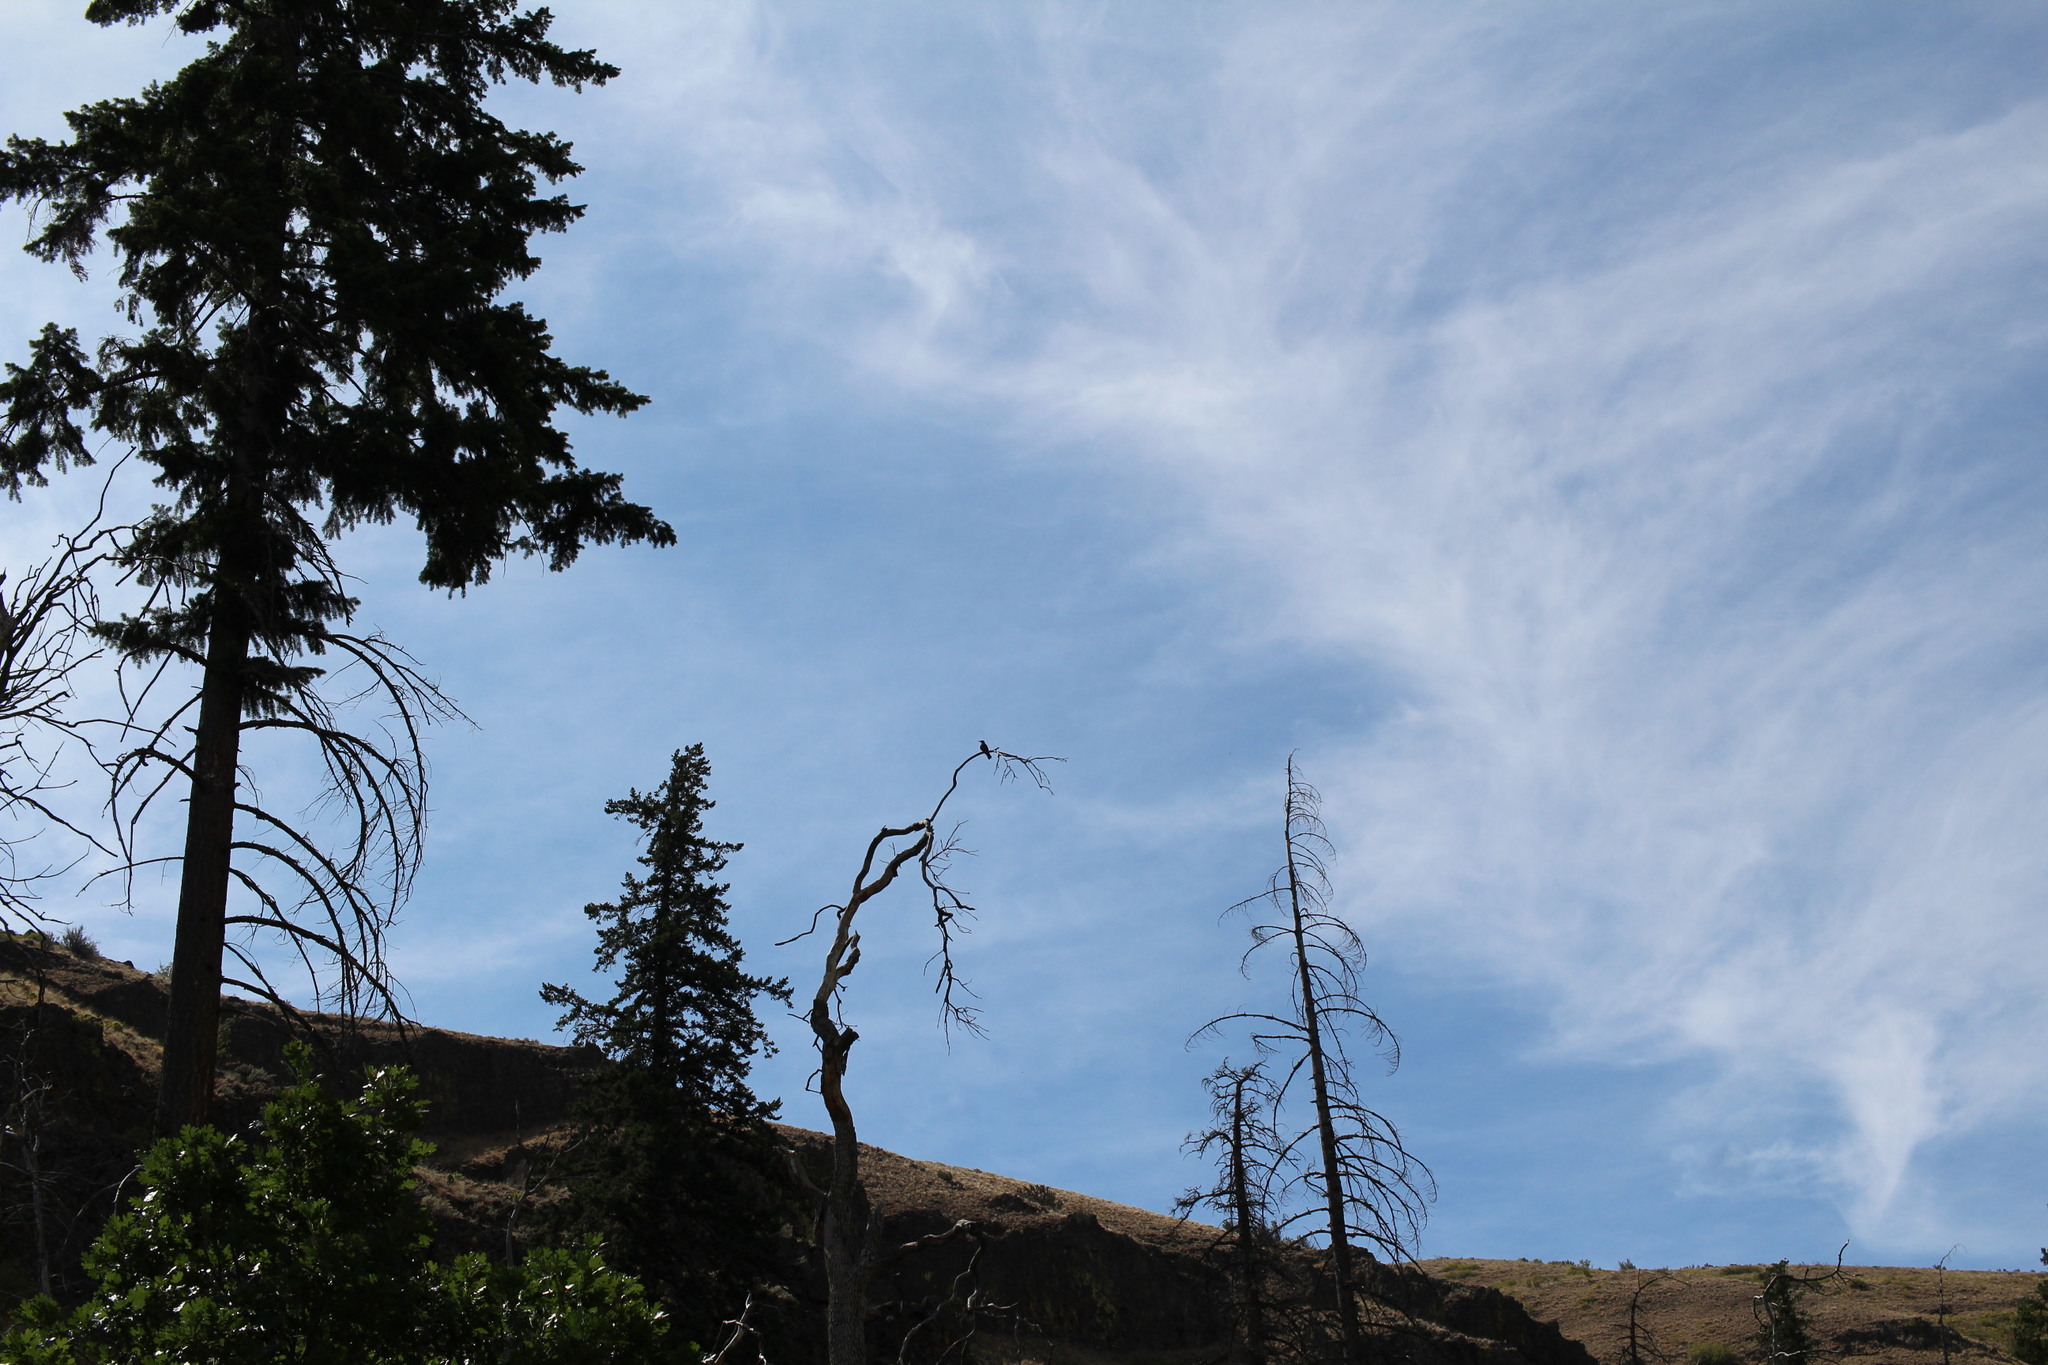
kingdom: Animalia
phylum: Chordata
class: Aves
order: Piciformes
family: Picidae
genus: Melanerpes
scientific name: Melanerpes lewis
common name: Lewis's woodpecker
